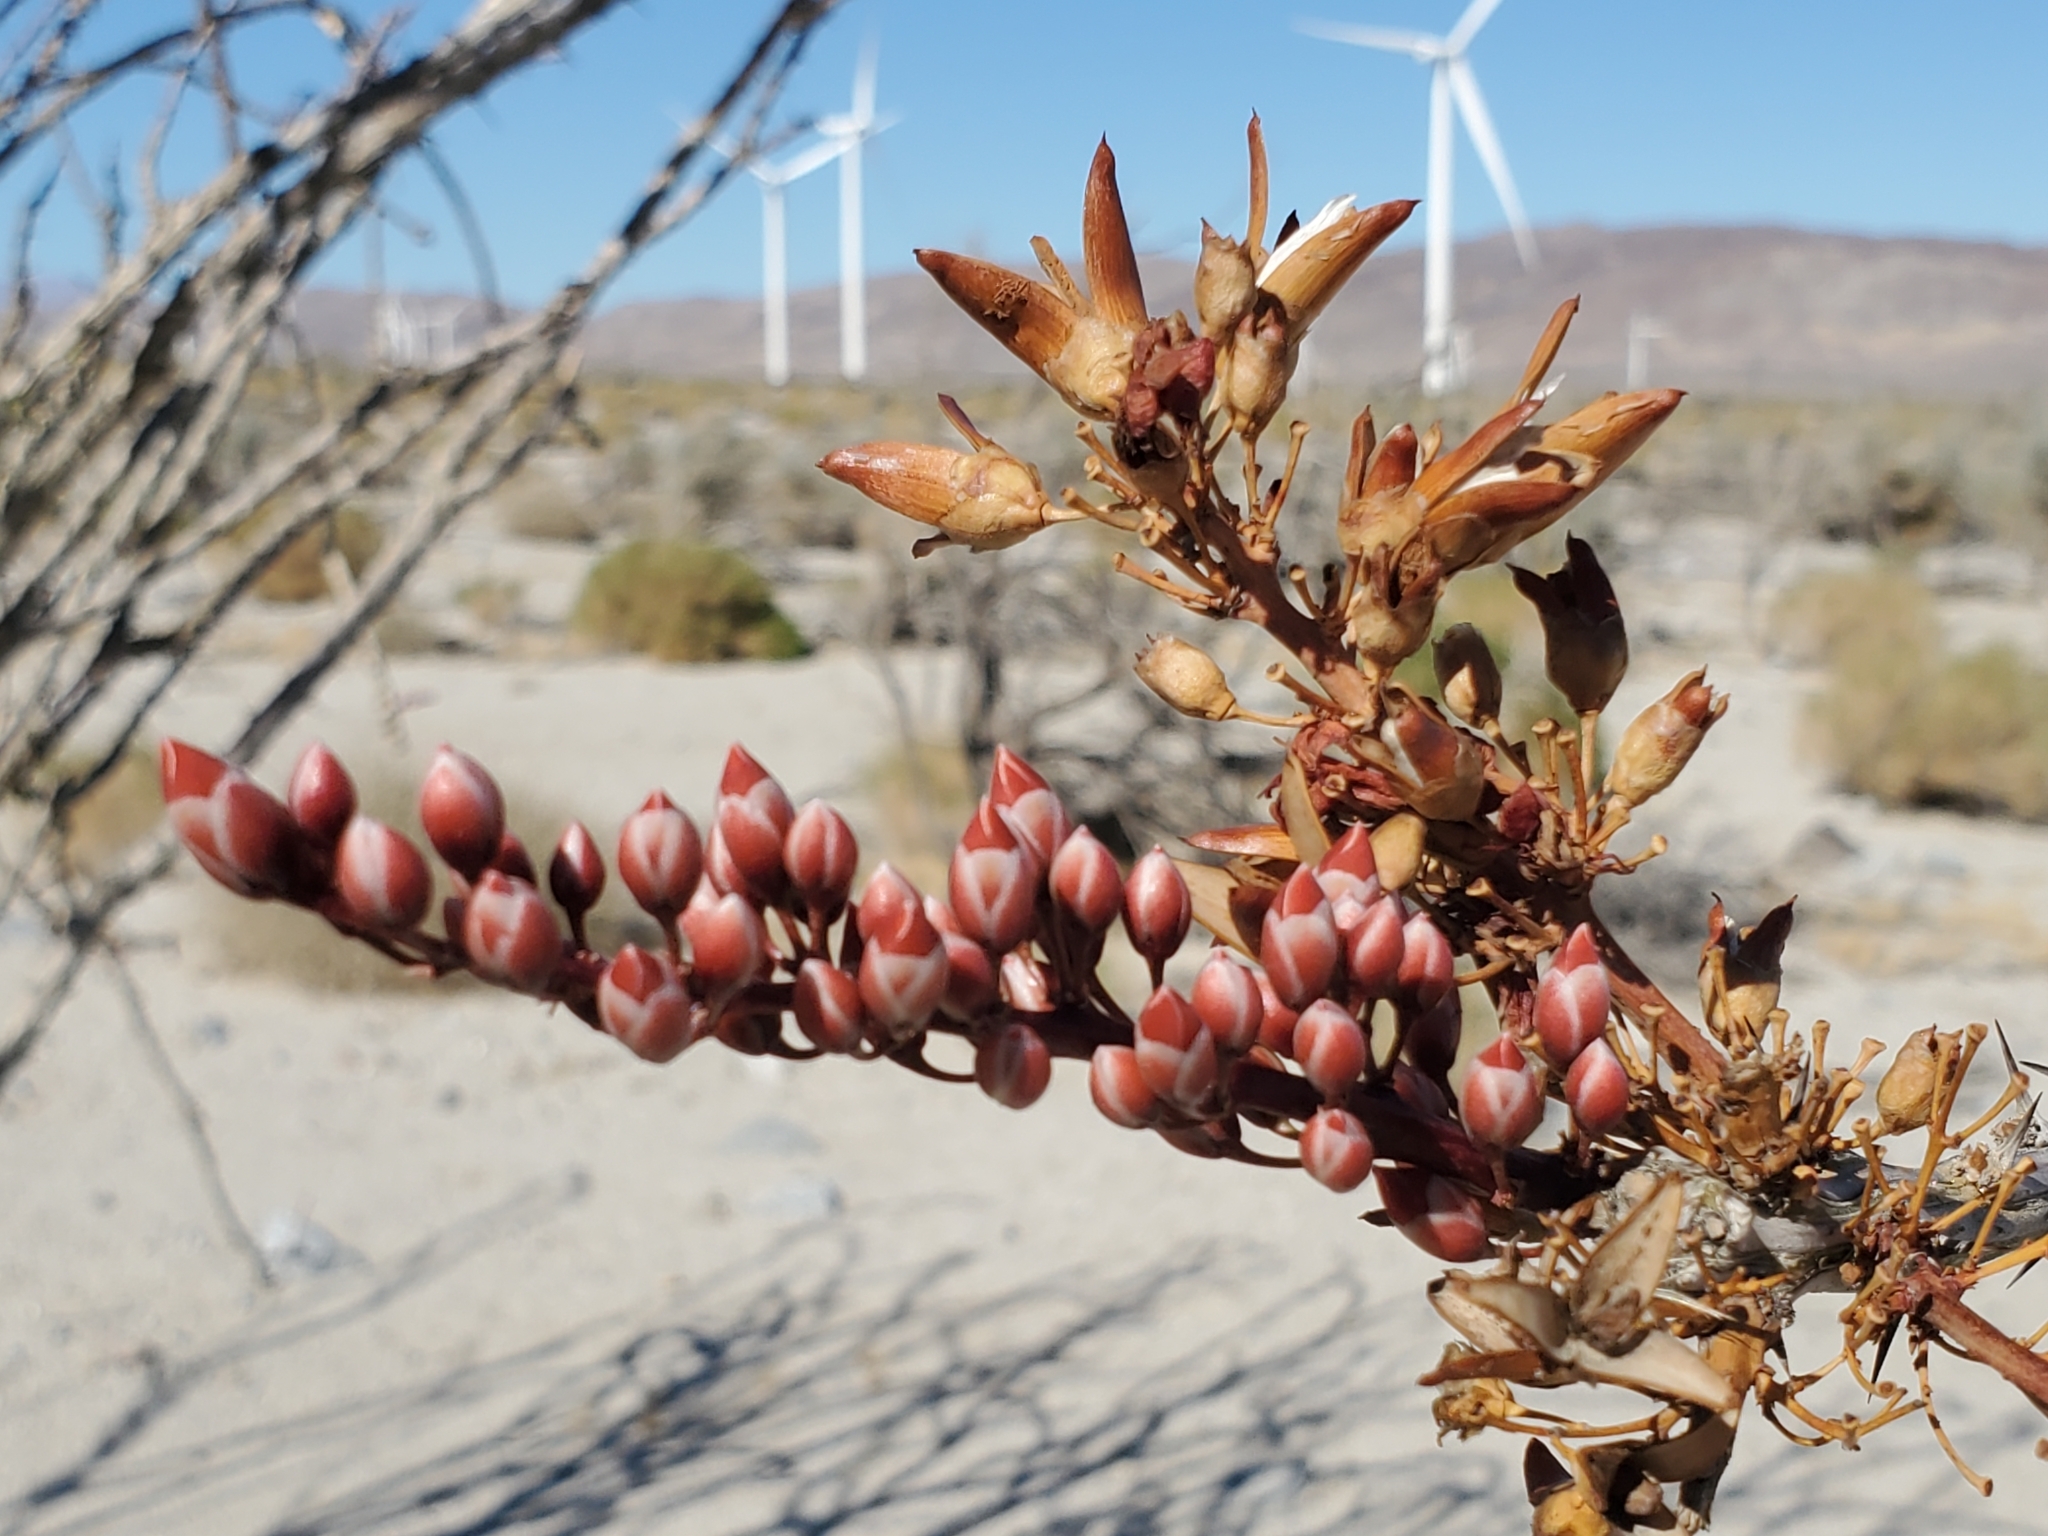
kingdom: Plantae
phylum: Tracheophyta
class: Magnoliopsida
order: Ericales
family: Fouquieriaceae
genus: Fouquieria
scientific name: Fouquieria splendens
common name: Vine-cactus
